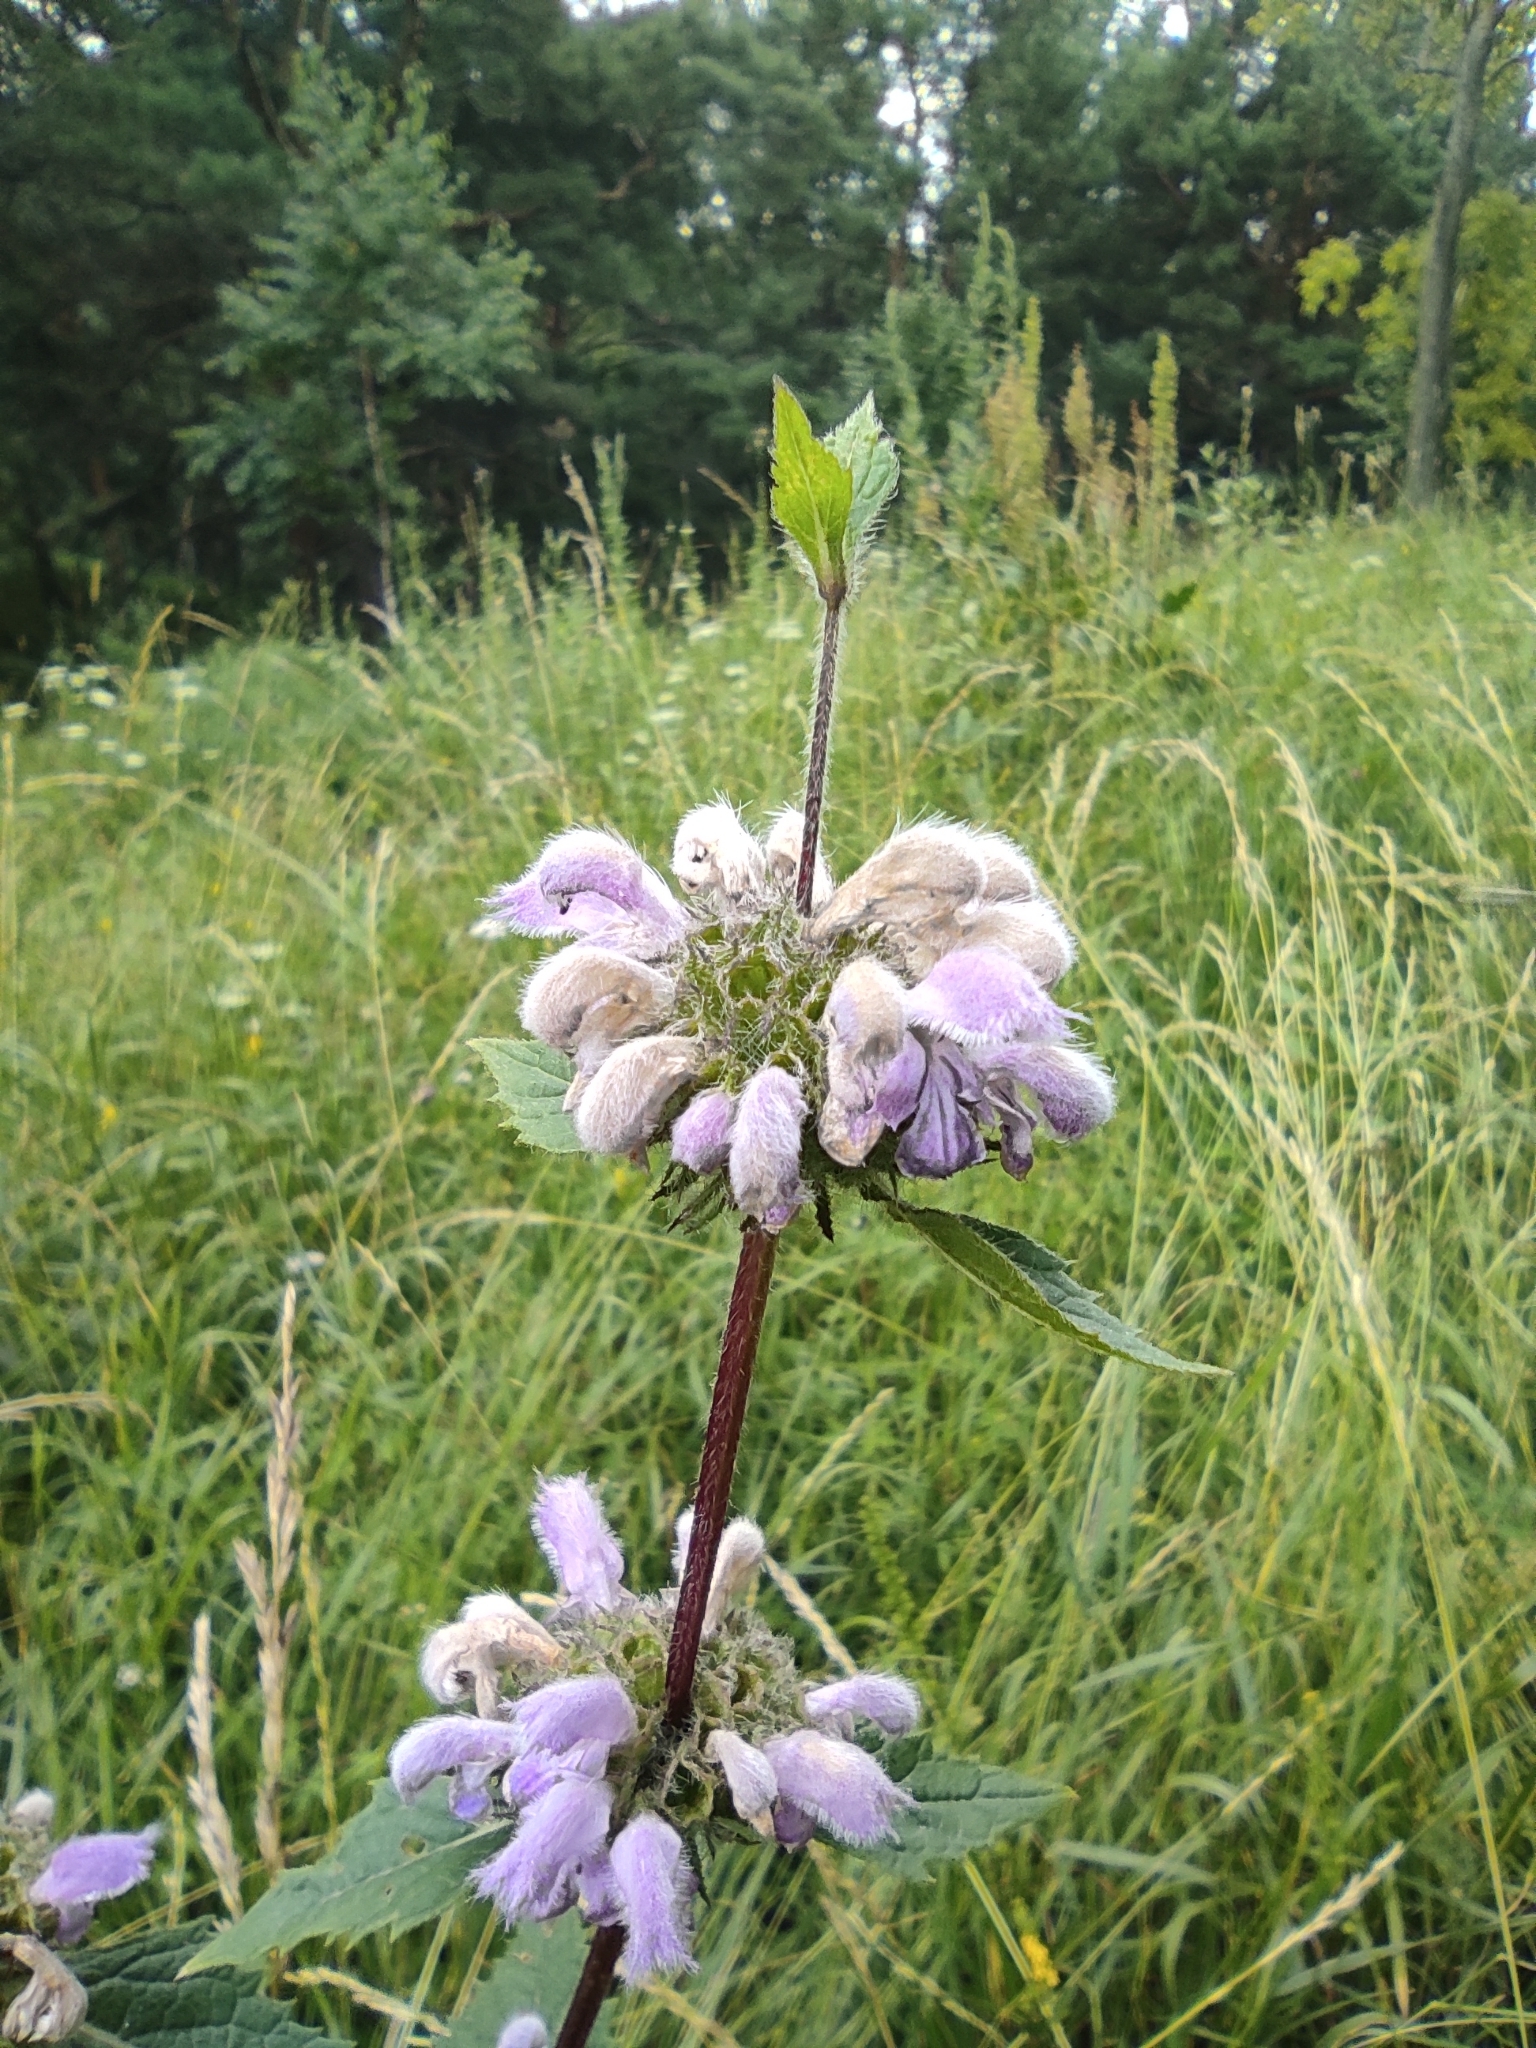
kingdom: Plantae
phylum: Tracheophyta
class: Magnoliopsida
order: Lamiales
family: Lamiaceae
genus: Phlomoides
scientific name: Phlomoides tuberosa
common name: Tuberous jerusalem sage
